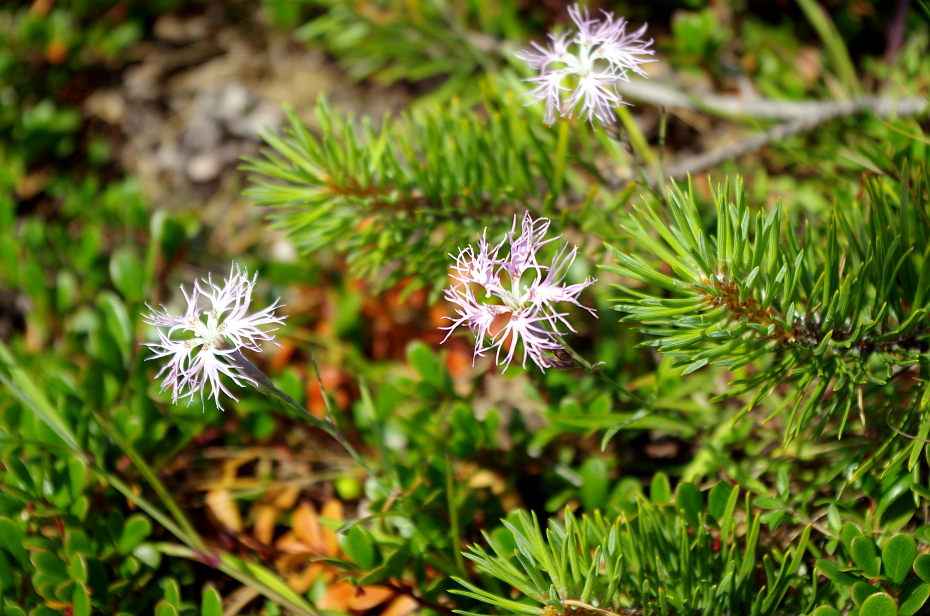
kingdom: Plantae
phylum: Tracheophyta
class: Magnoliopsida
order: Caryophyllales
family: Caryophyllaceae
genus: Dianthus
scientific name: Dianthus superbus
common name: Fringed pink
